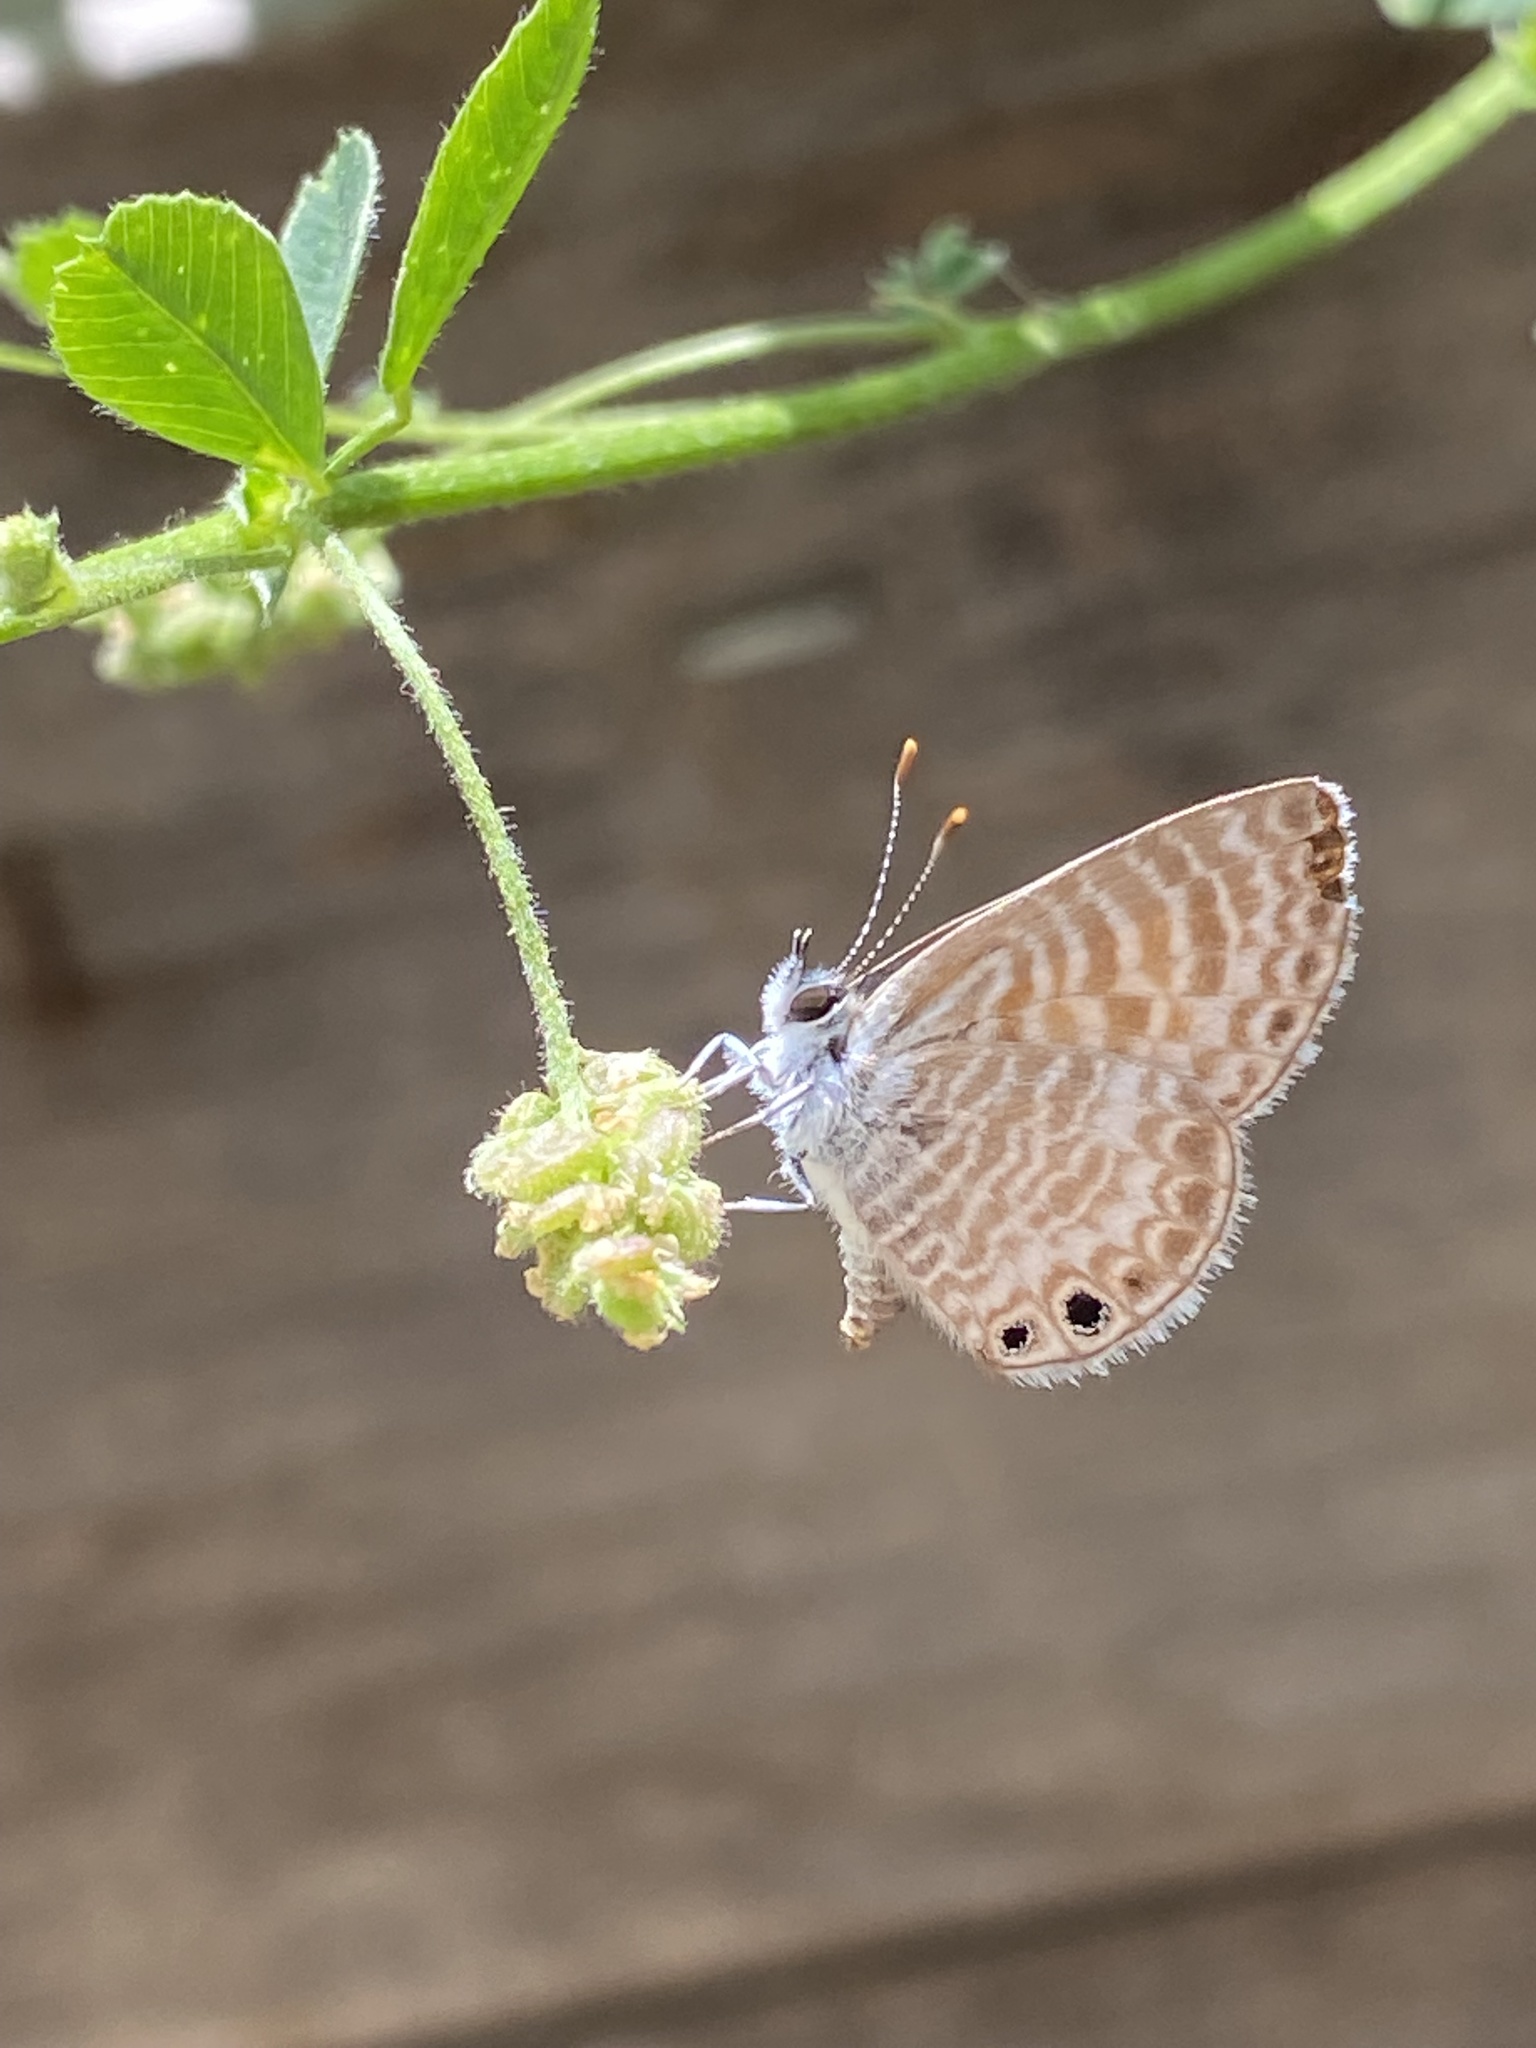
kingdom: Animalia
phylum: Arthropoda
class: Insecta
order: Lepidoptera
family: Lycaenidae
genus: Leptotes
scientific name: Leptotes marina
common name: Marine blue
